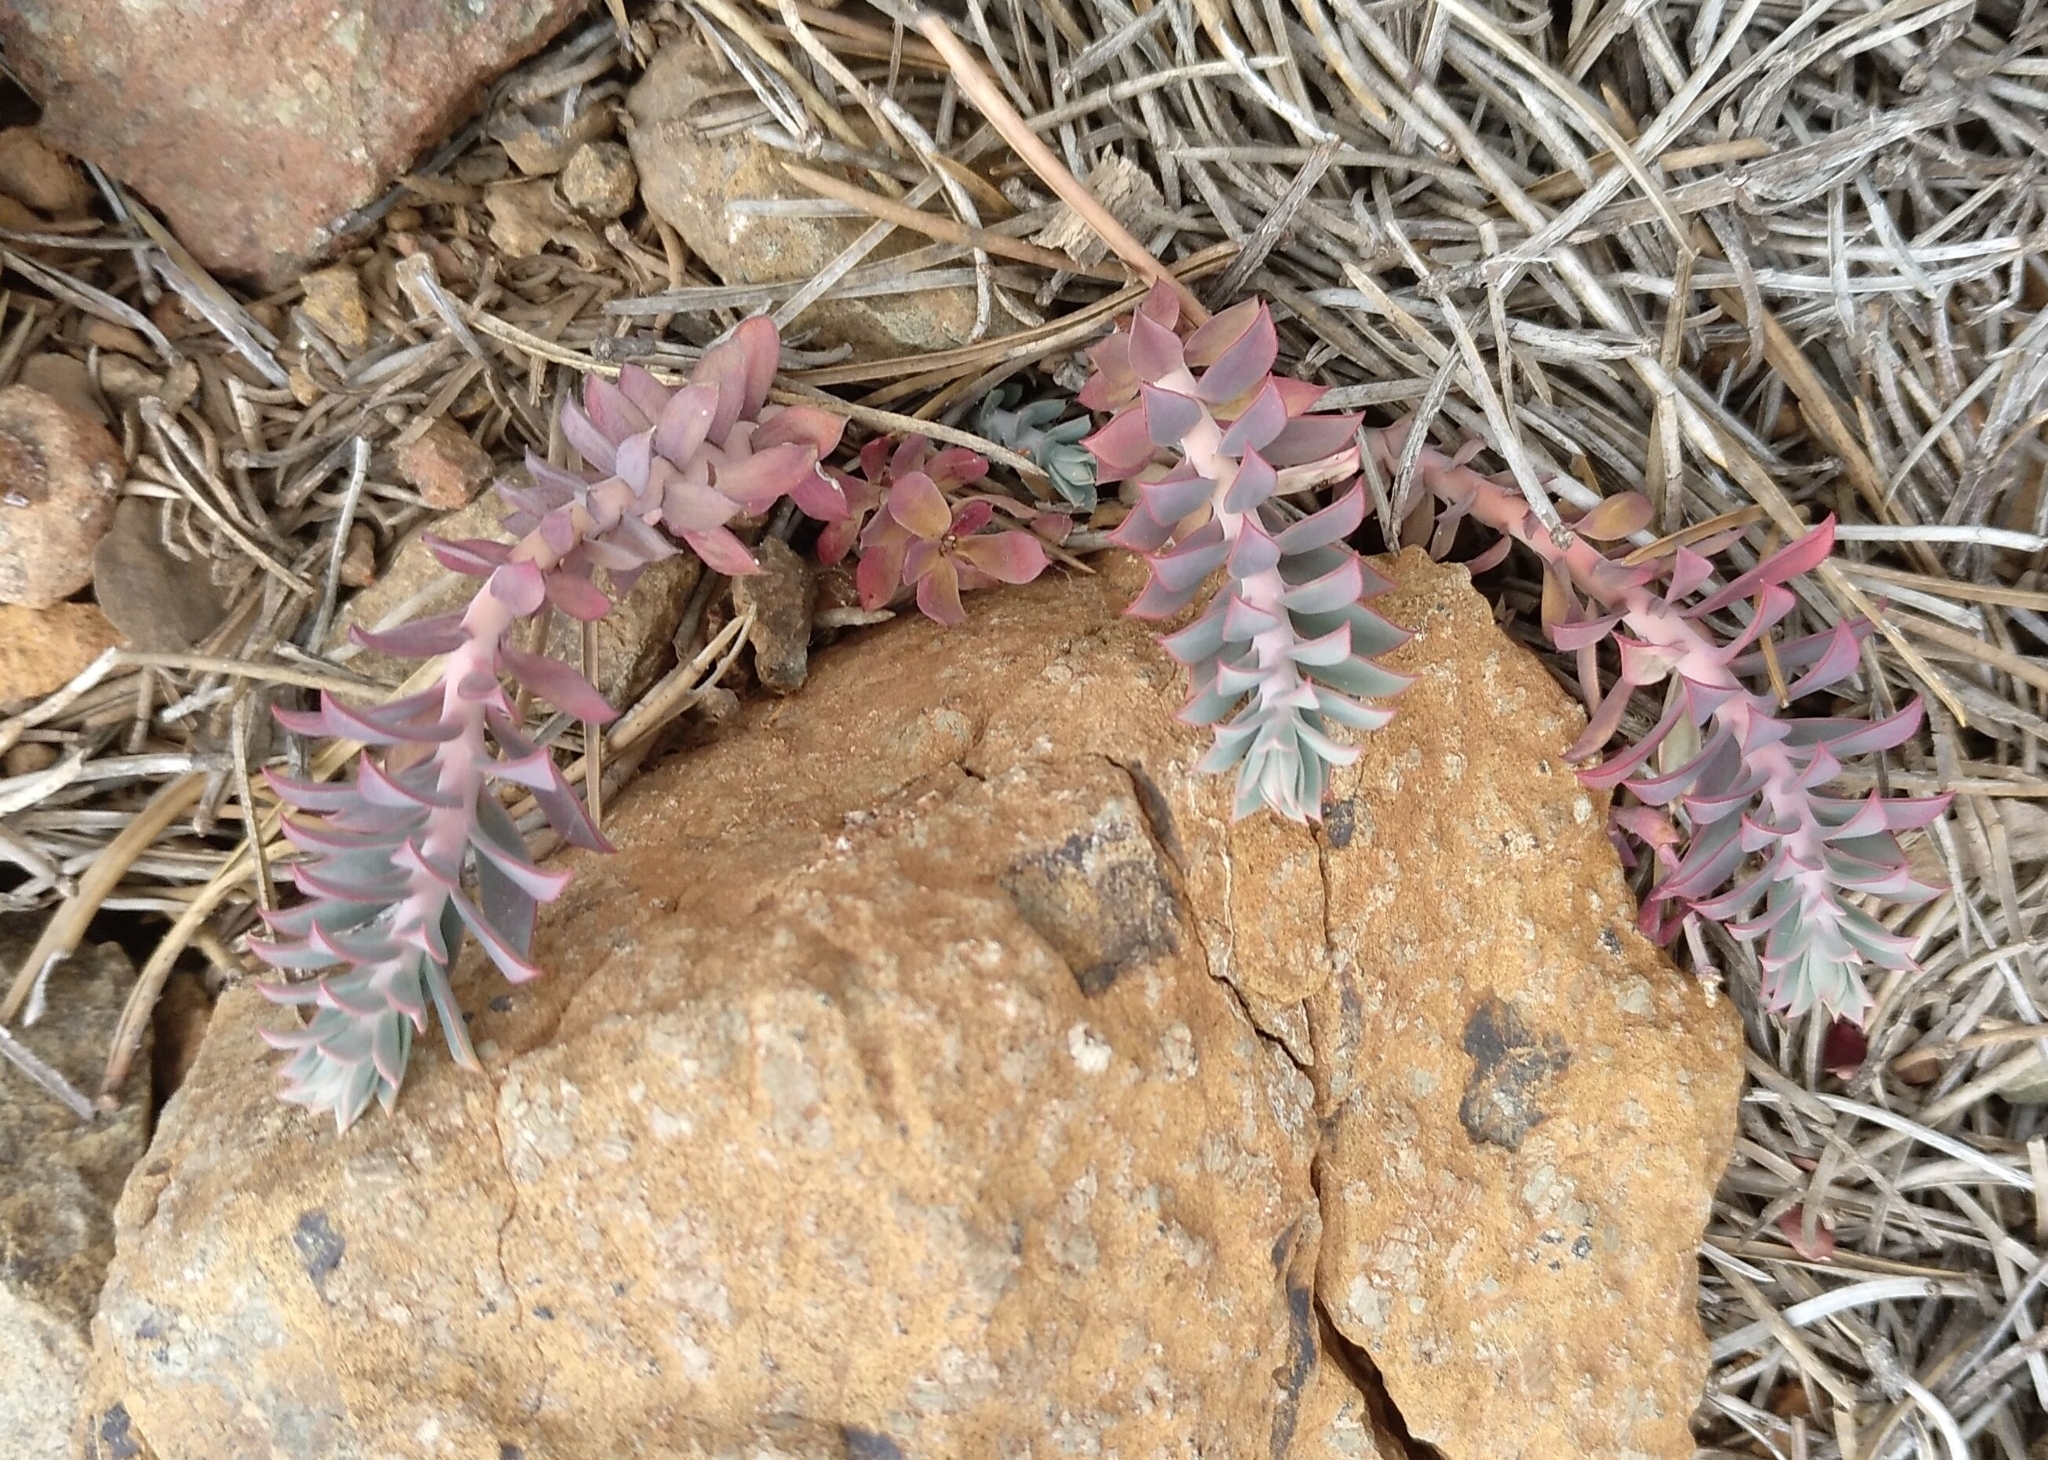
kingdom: Plantae
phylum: Tracheophyta
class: Magnoliopsida
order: Malpighiales
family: Euphorbiaceae
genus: Euphorbia
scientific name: Euphorbia veneris
